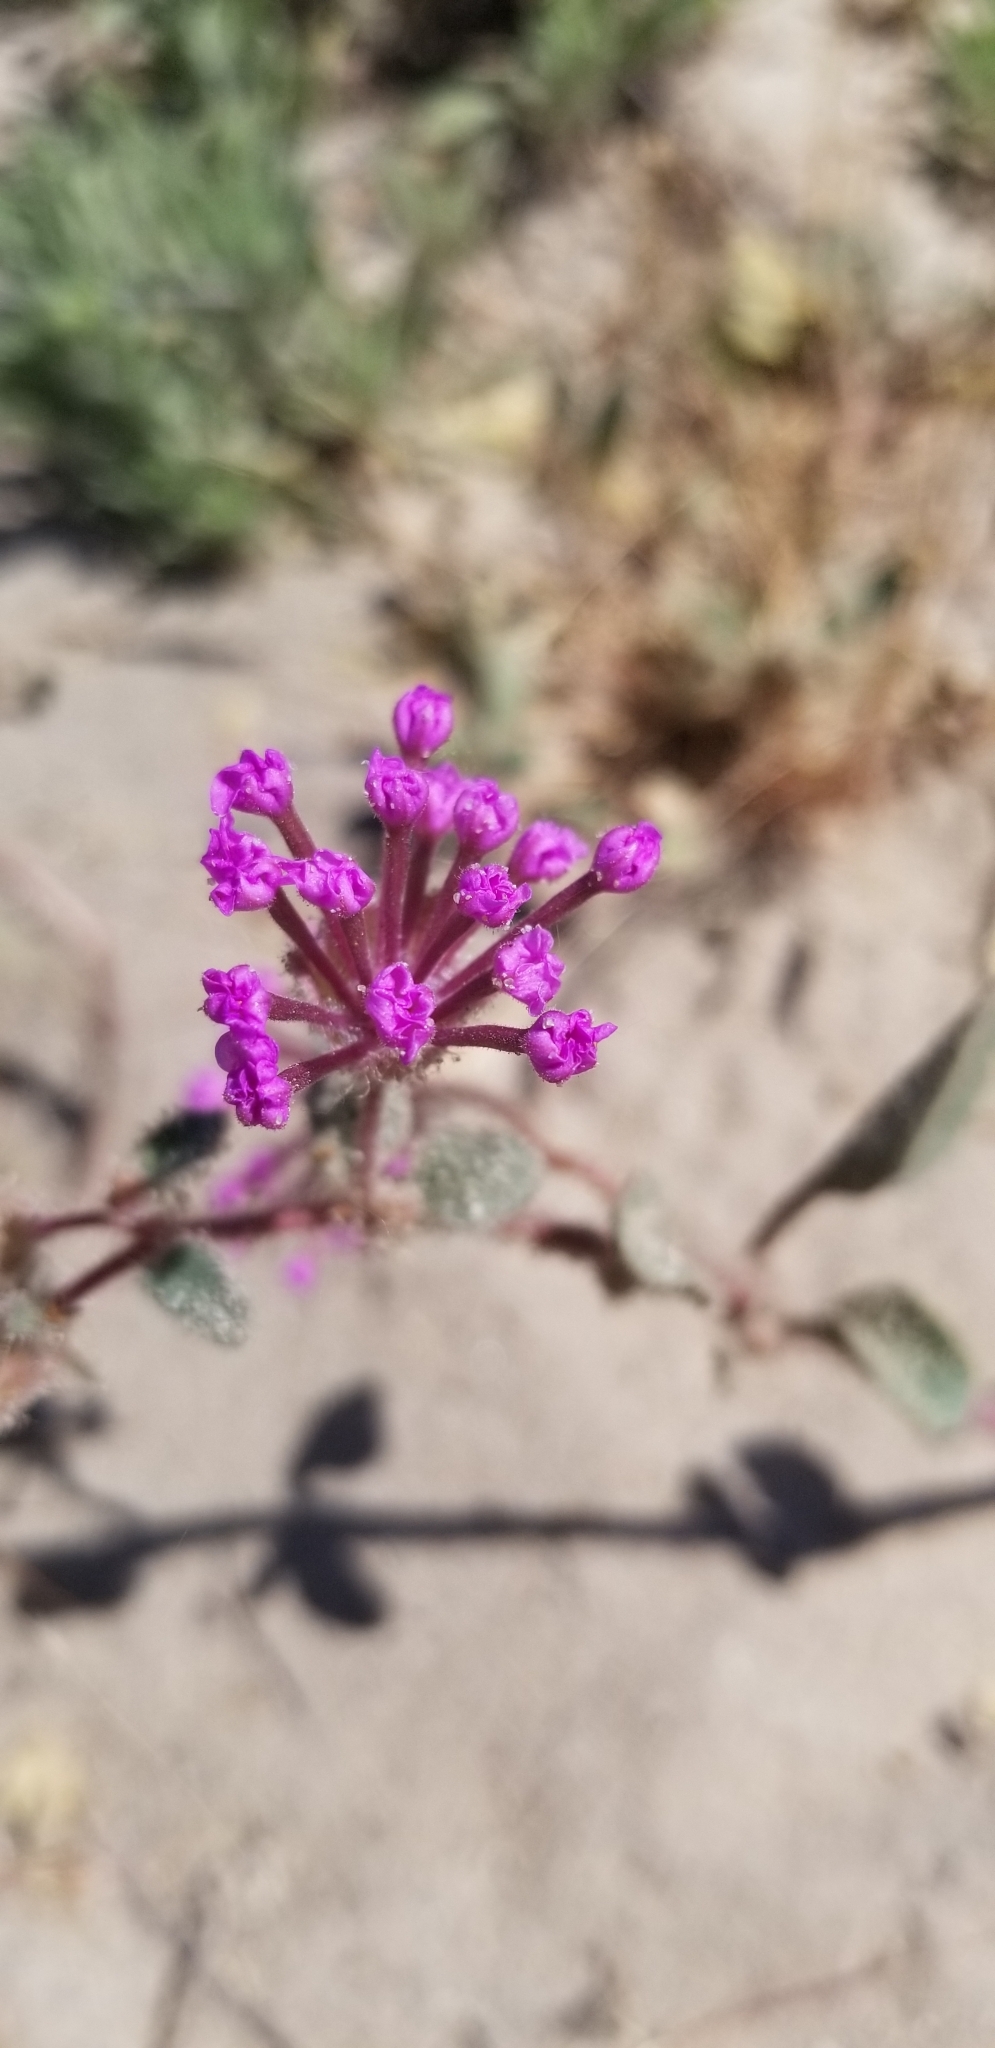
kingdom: Plantae
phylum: Tracheophyta
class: Magnoliopsida
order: Caryophyllales
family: Nyctaginaceae
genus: Abronia
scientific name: Abronia pogonantha
